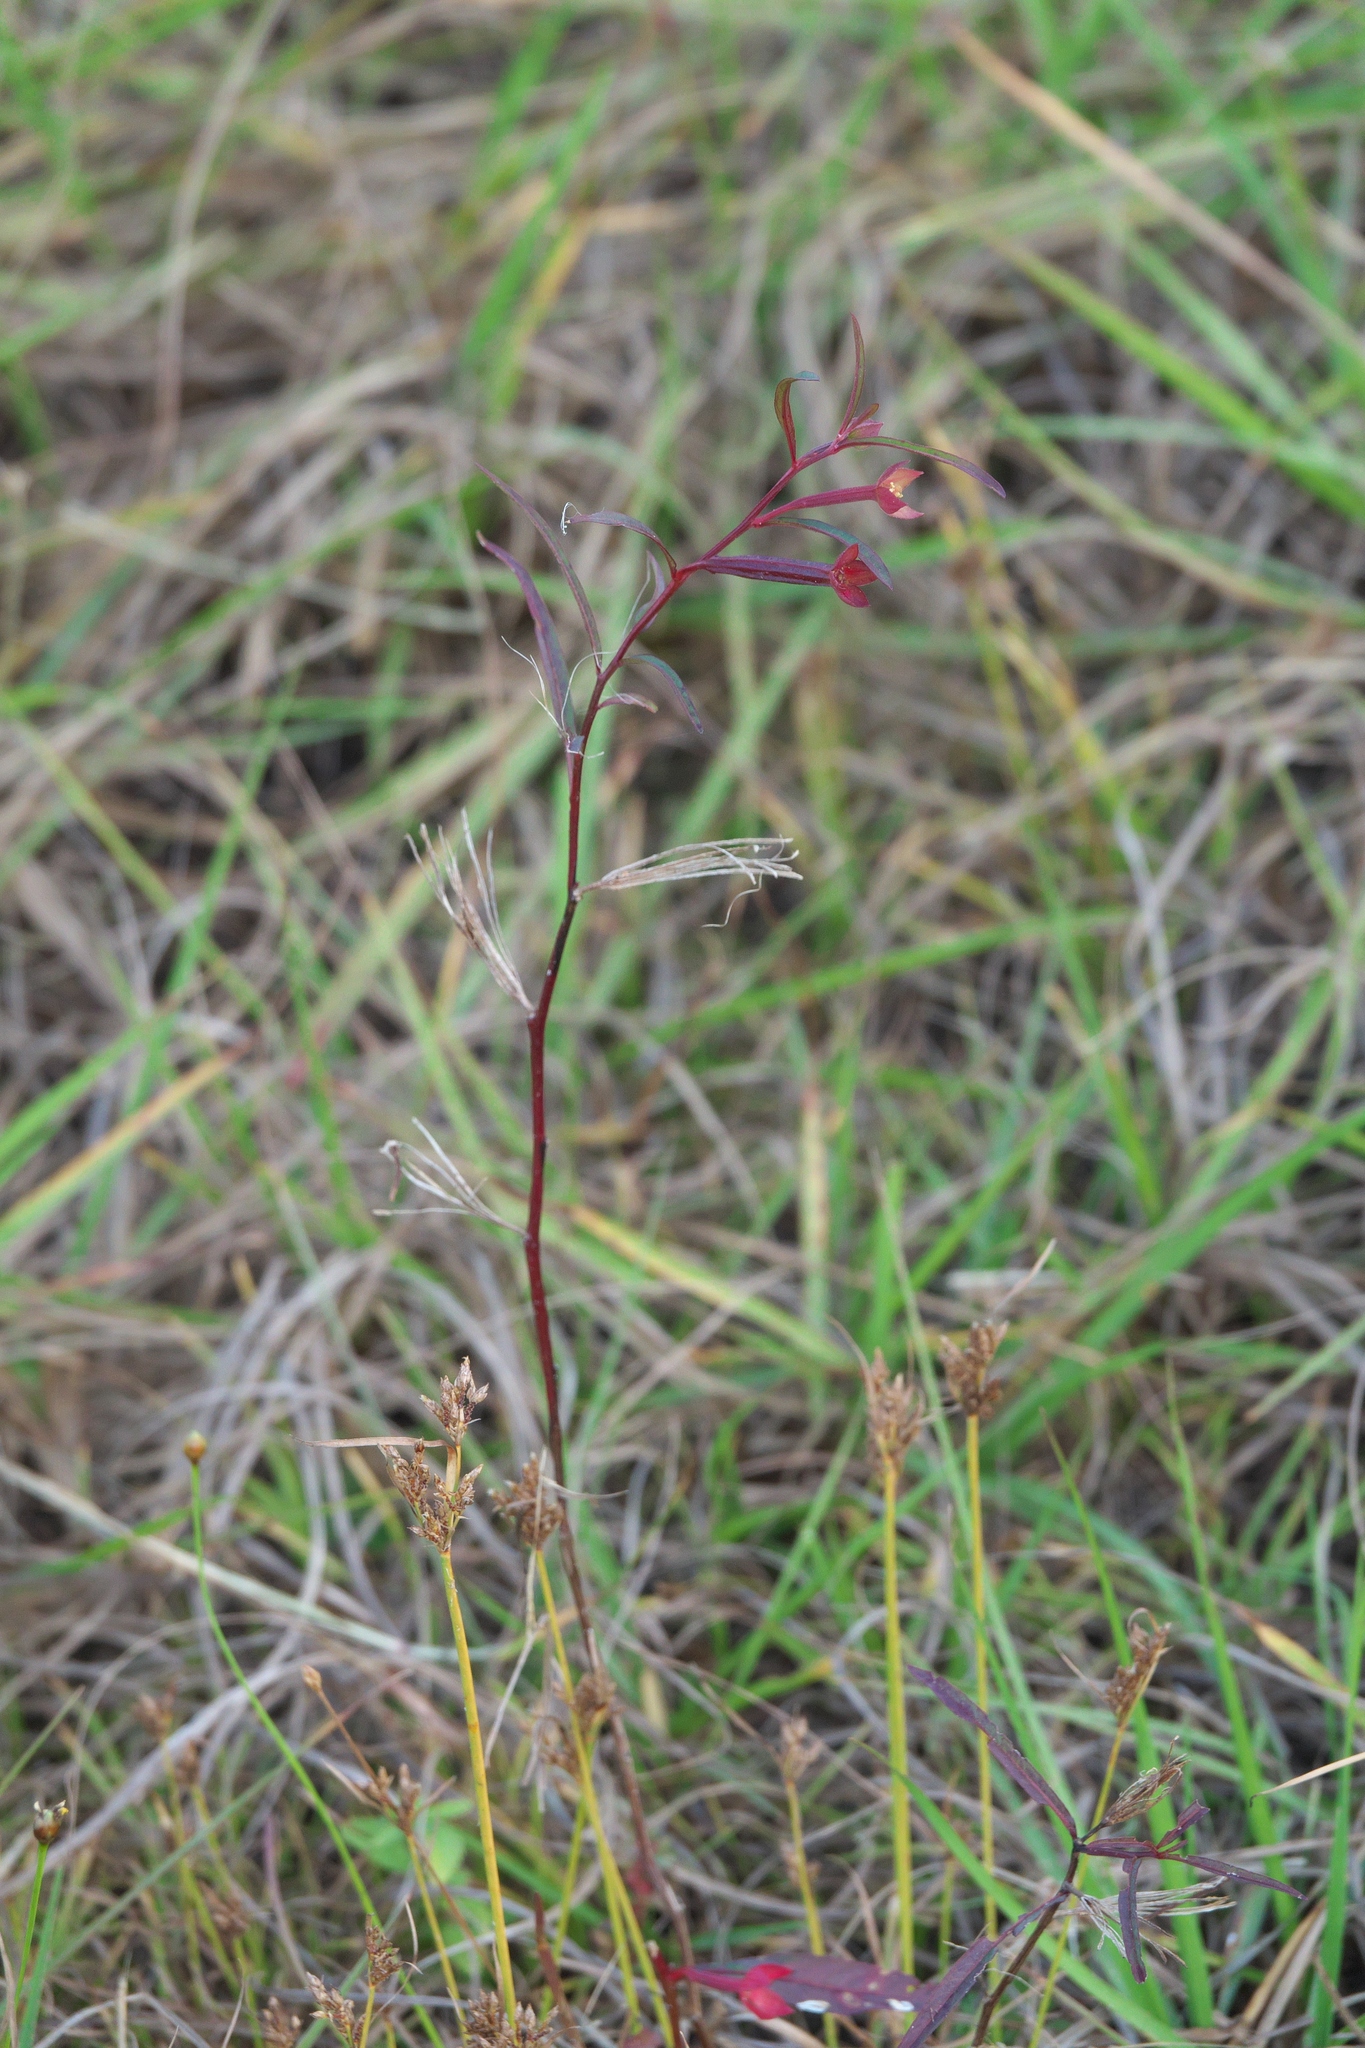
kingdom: Plantae
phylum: Tracheophyta
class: Magnoliopsida
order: Myrtales
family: Onagraceae
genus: Ludwigia
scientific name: Ludwigia octovalvis
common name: Water-primrose
